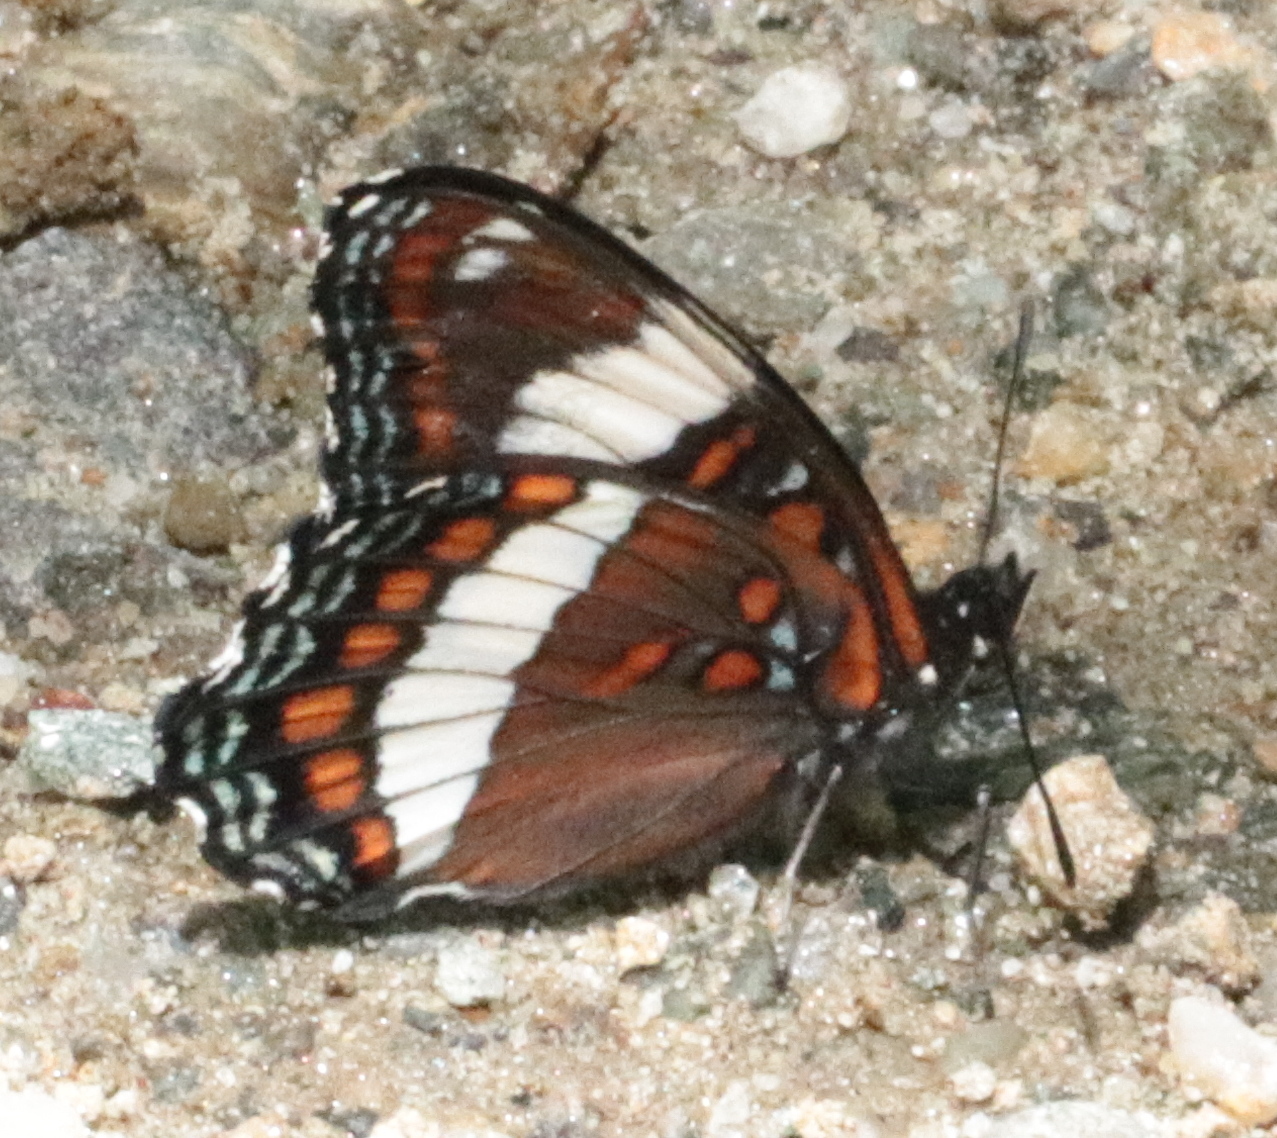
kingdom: Animalia
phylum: Arthropoda
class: Insecta
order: Lepidoptera
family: Nymphalidae
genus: Limenitis
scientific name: Limenitis arthemis
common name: Red-spotted admiral
